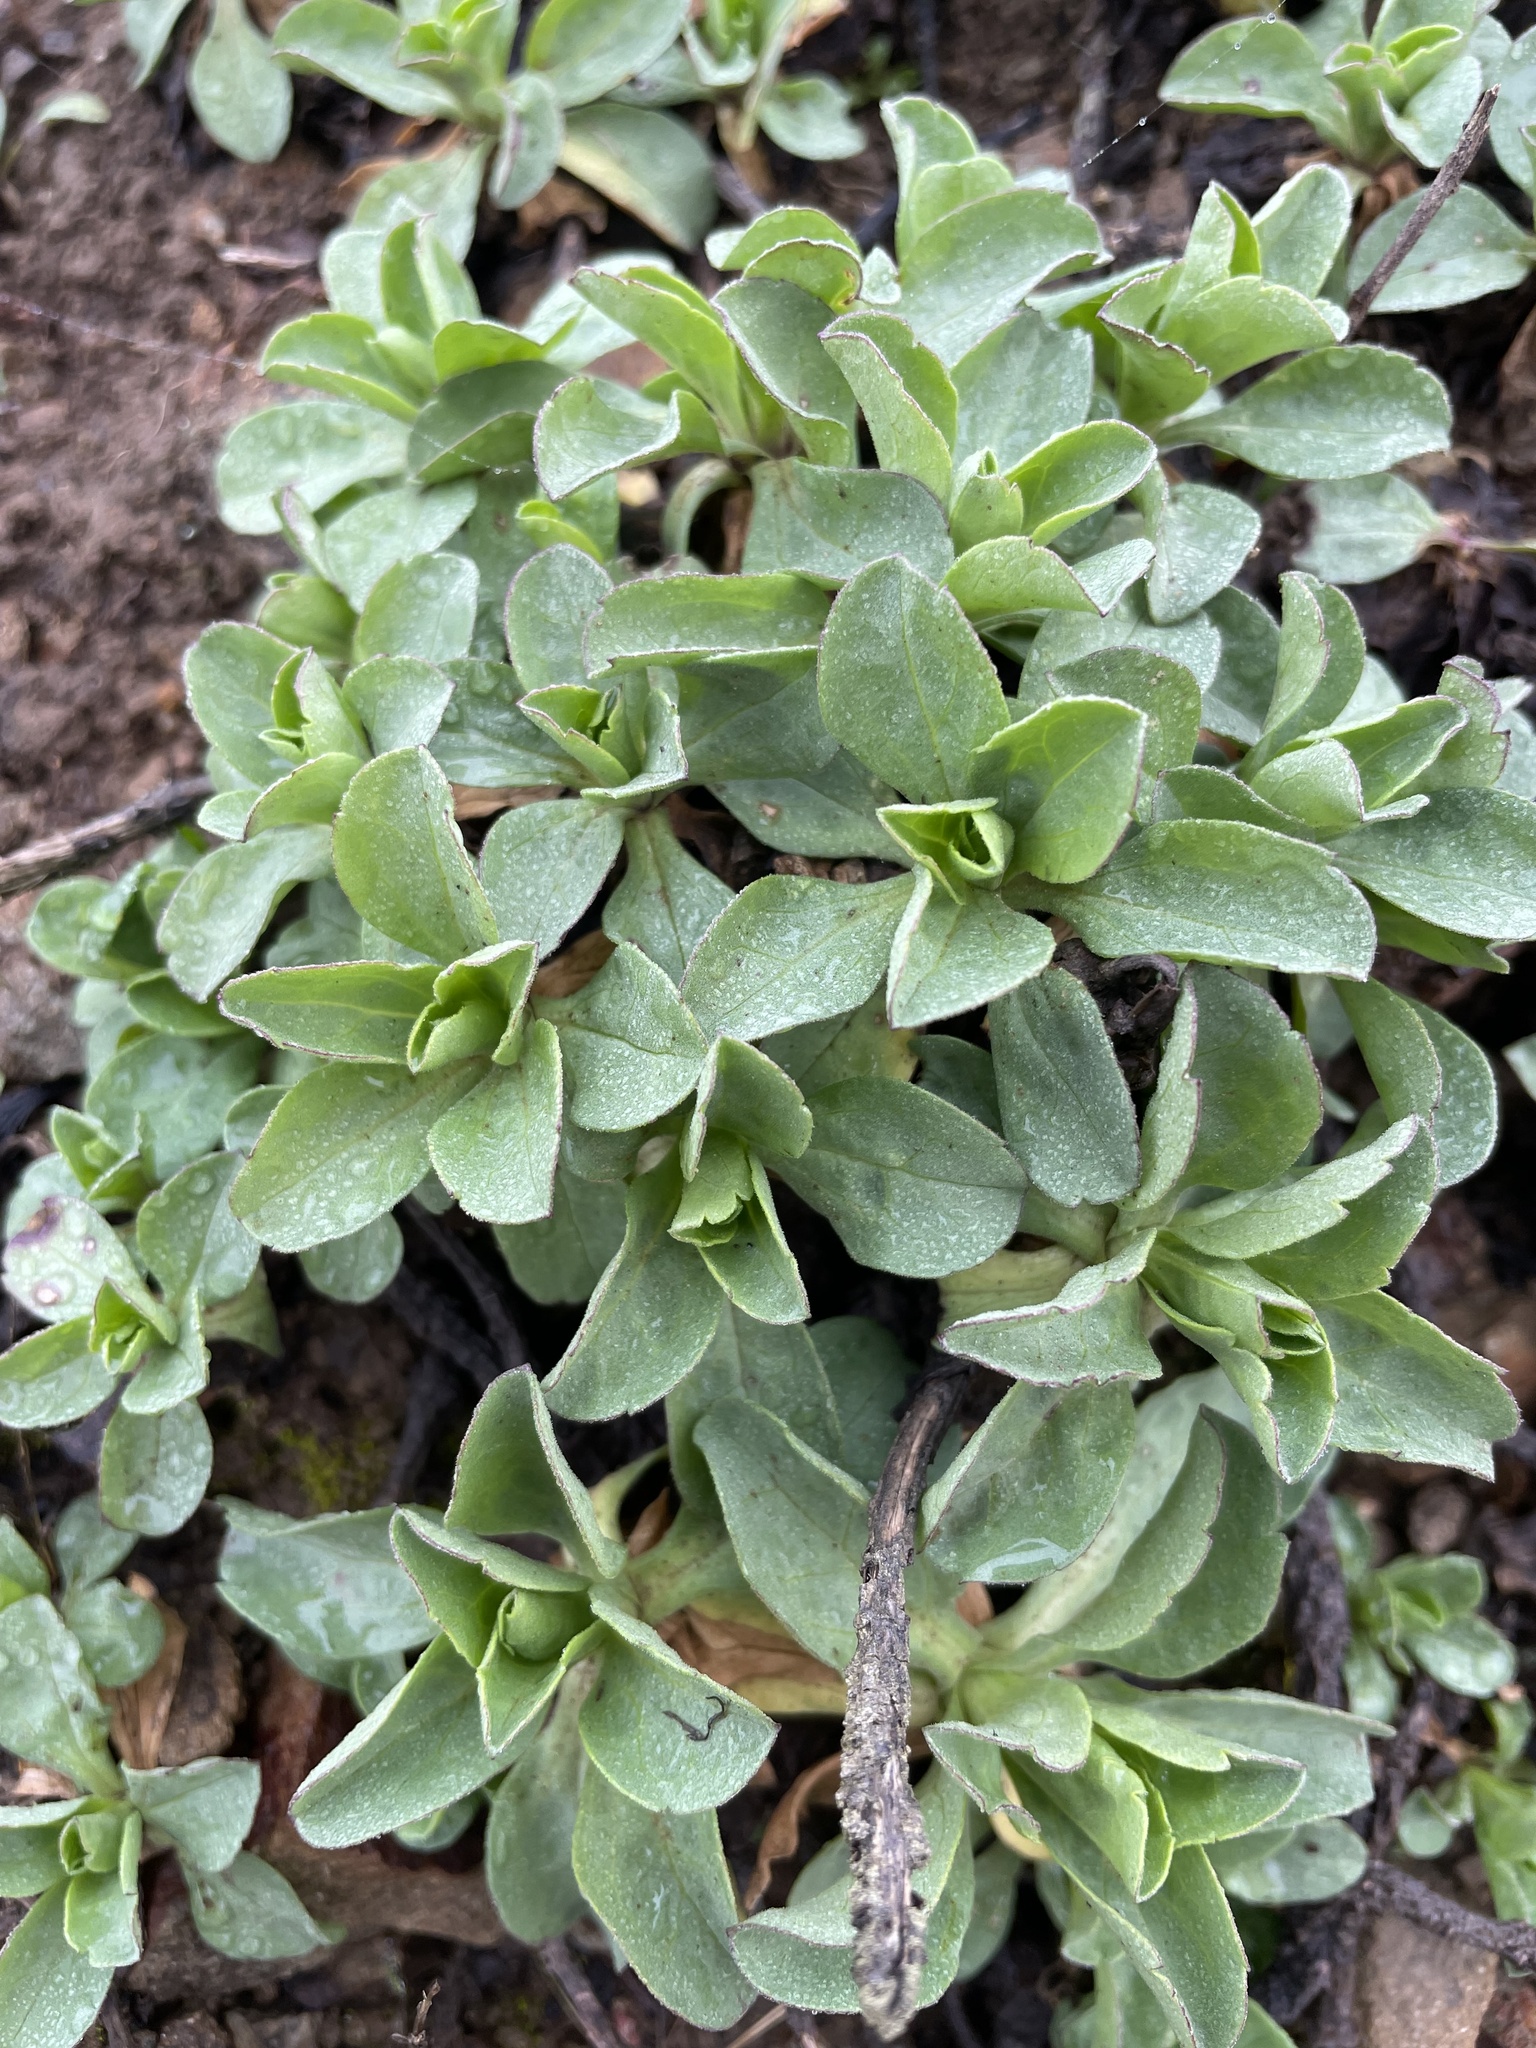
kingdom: Plantae
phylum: Tracheophyta
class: Magnoliopsida
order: Asterales
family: Asteraceae
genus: Erigeron
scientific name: Erigeron glaucus
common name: Seaside daisy
